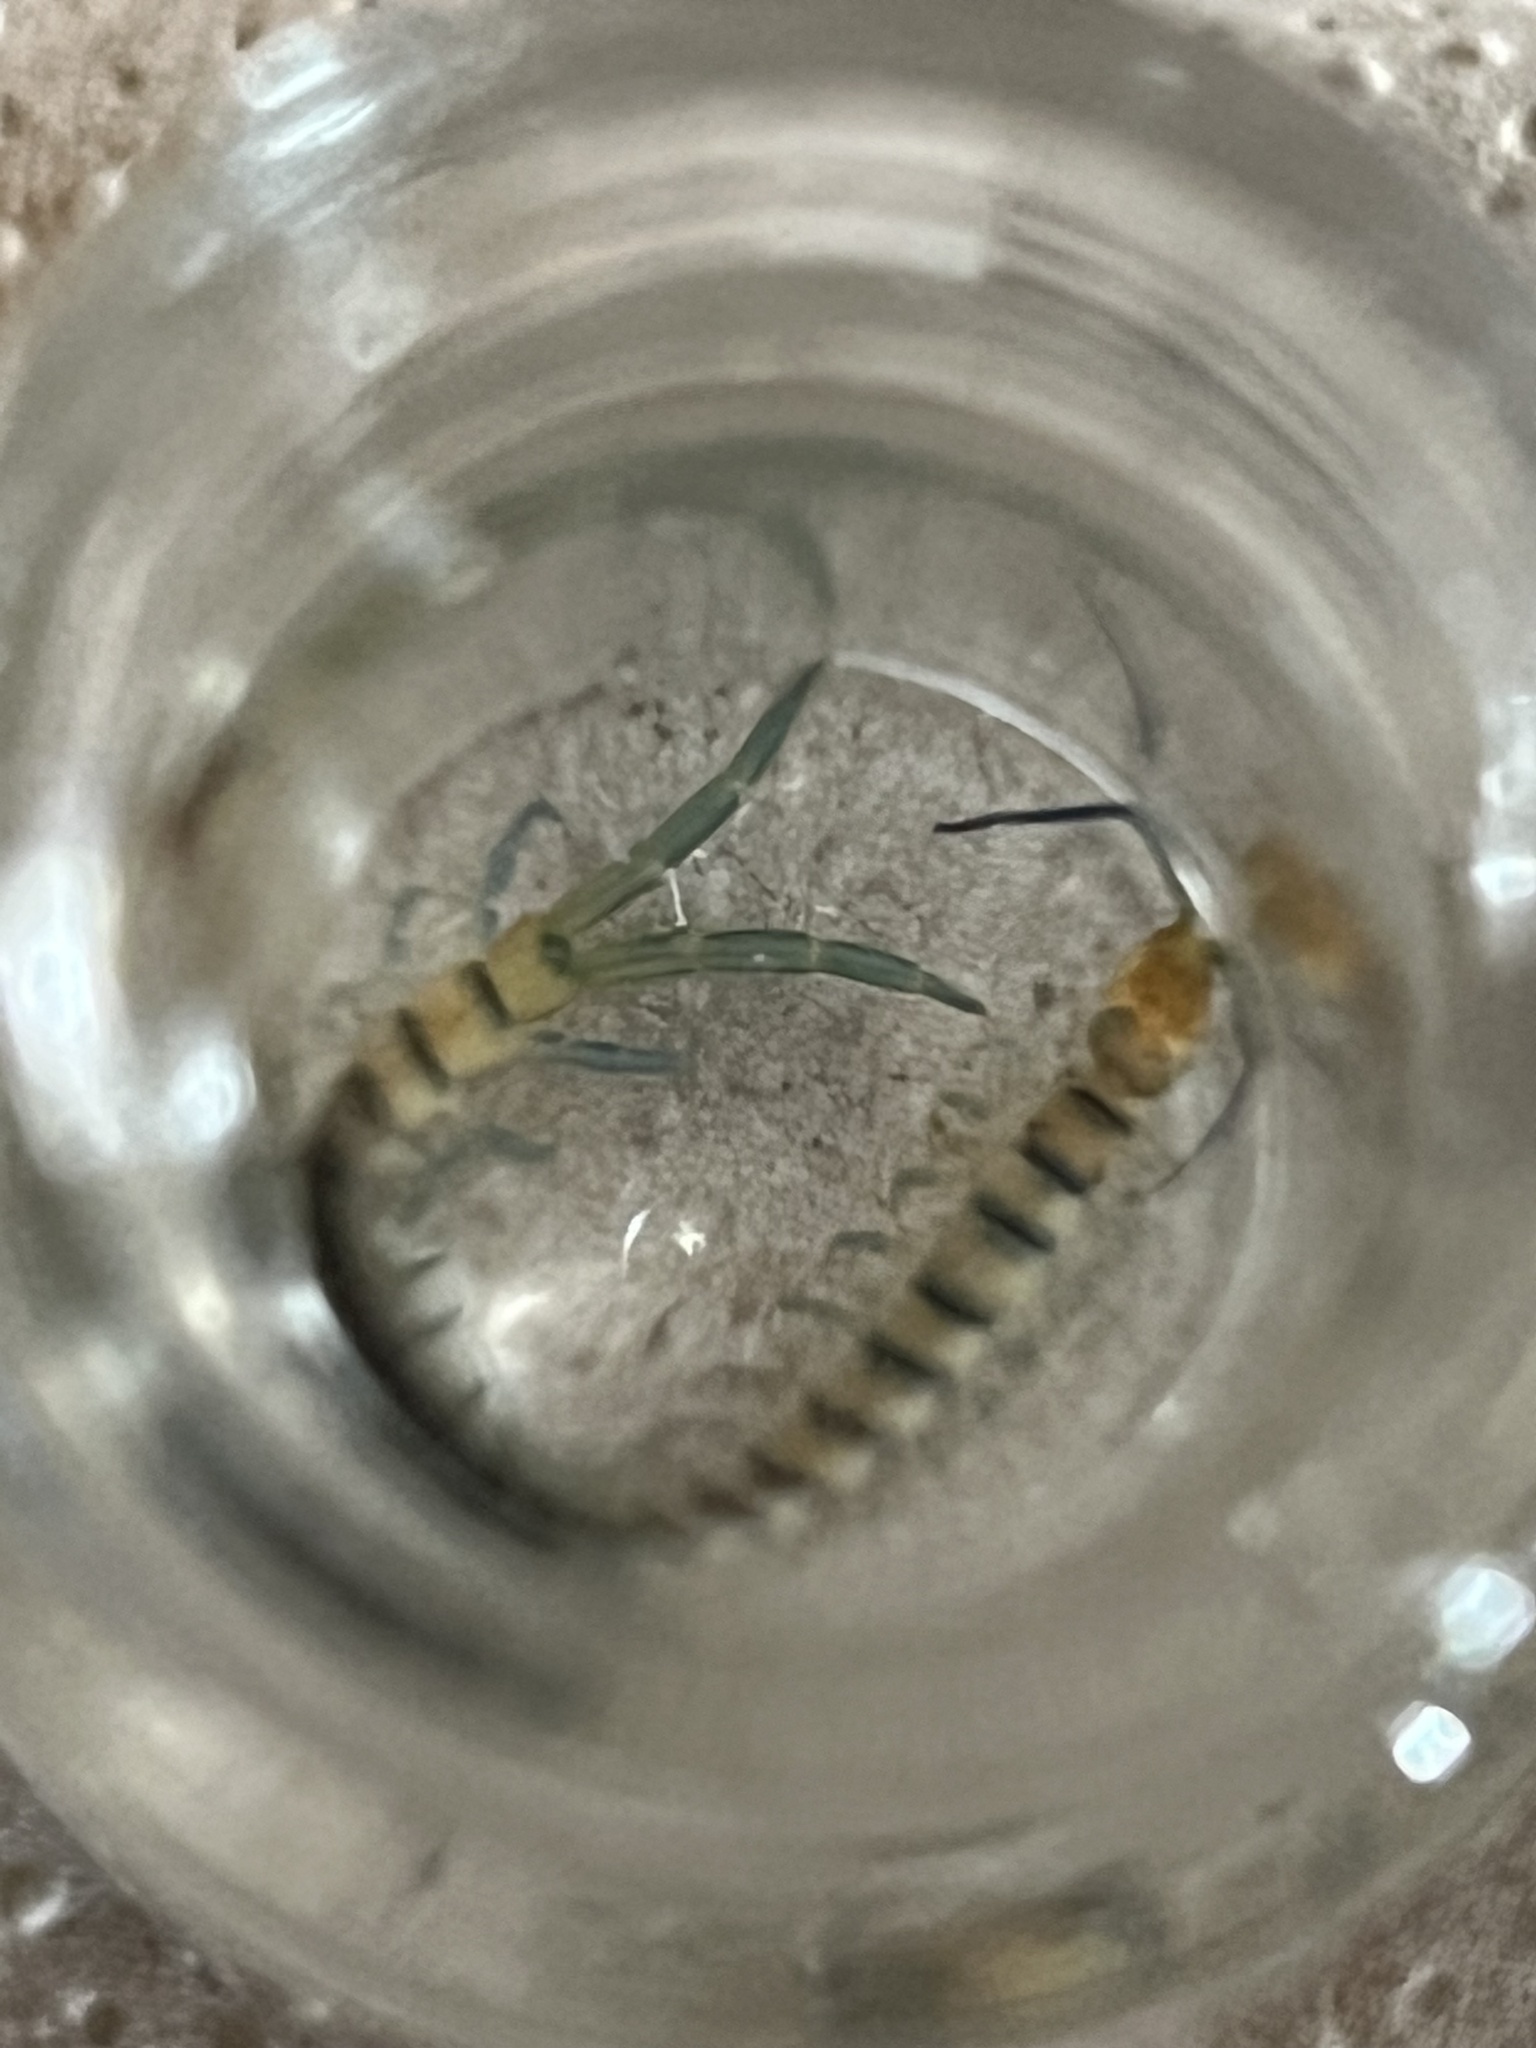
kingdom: Animalia
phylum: Arthropoda
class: Chilopoda
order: Scolopendromorpha
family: Scolopendridae
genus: Scolopendra
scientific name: Scolopendra polymorpha
